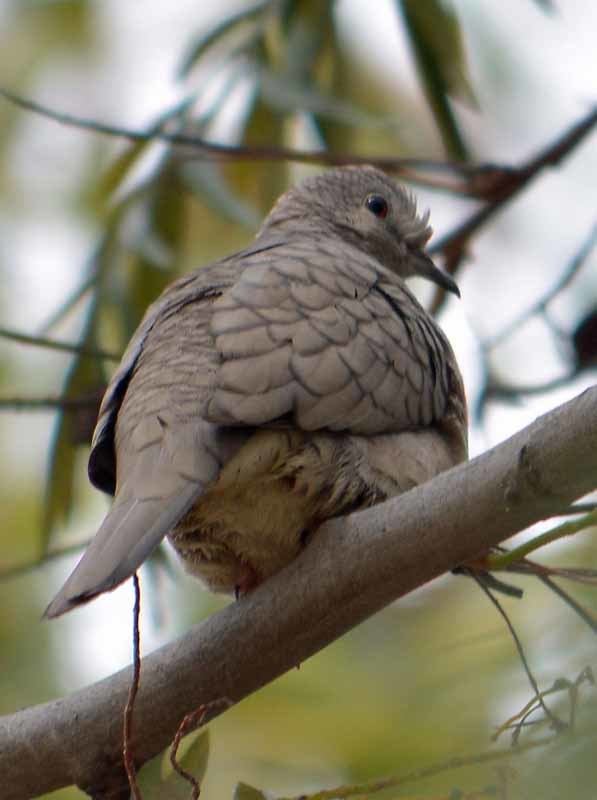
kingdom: Animalia
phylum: Chordata
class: Aves
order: Columbiformes
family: Columbidae
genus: Columbina
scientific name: Columbina inca
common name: Inca dove
